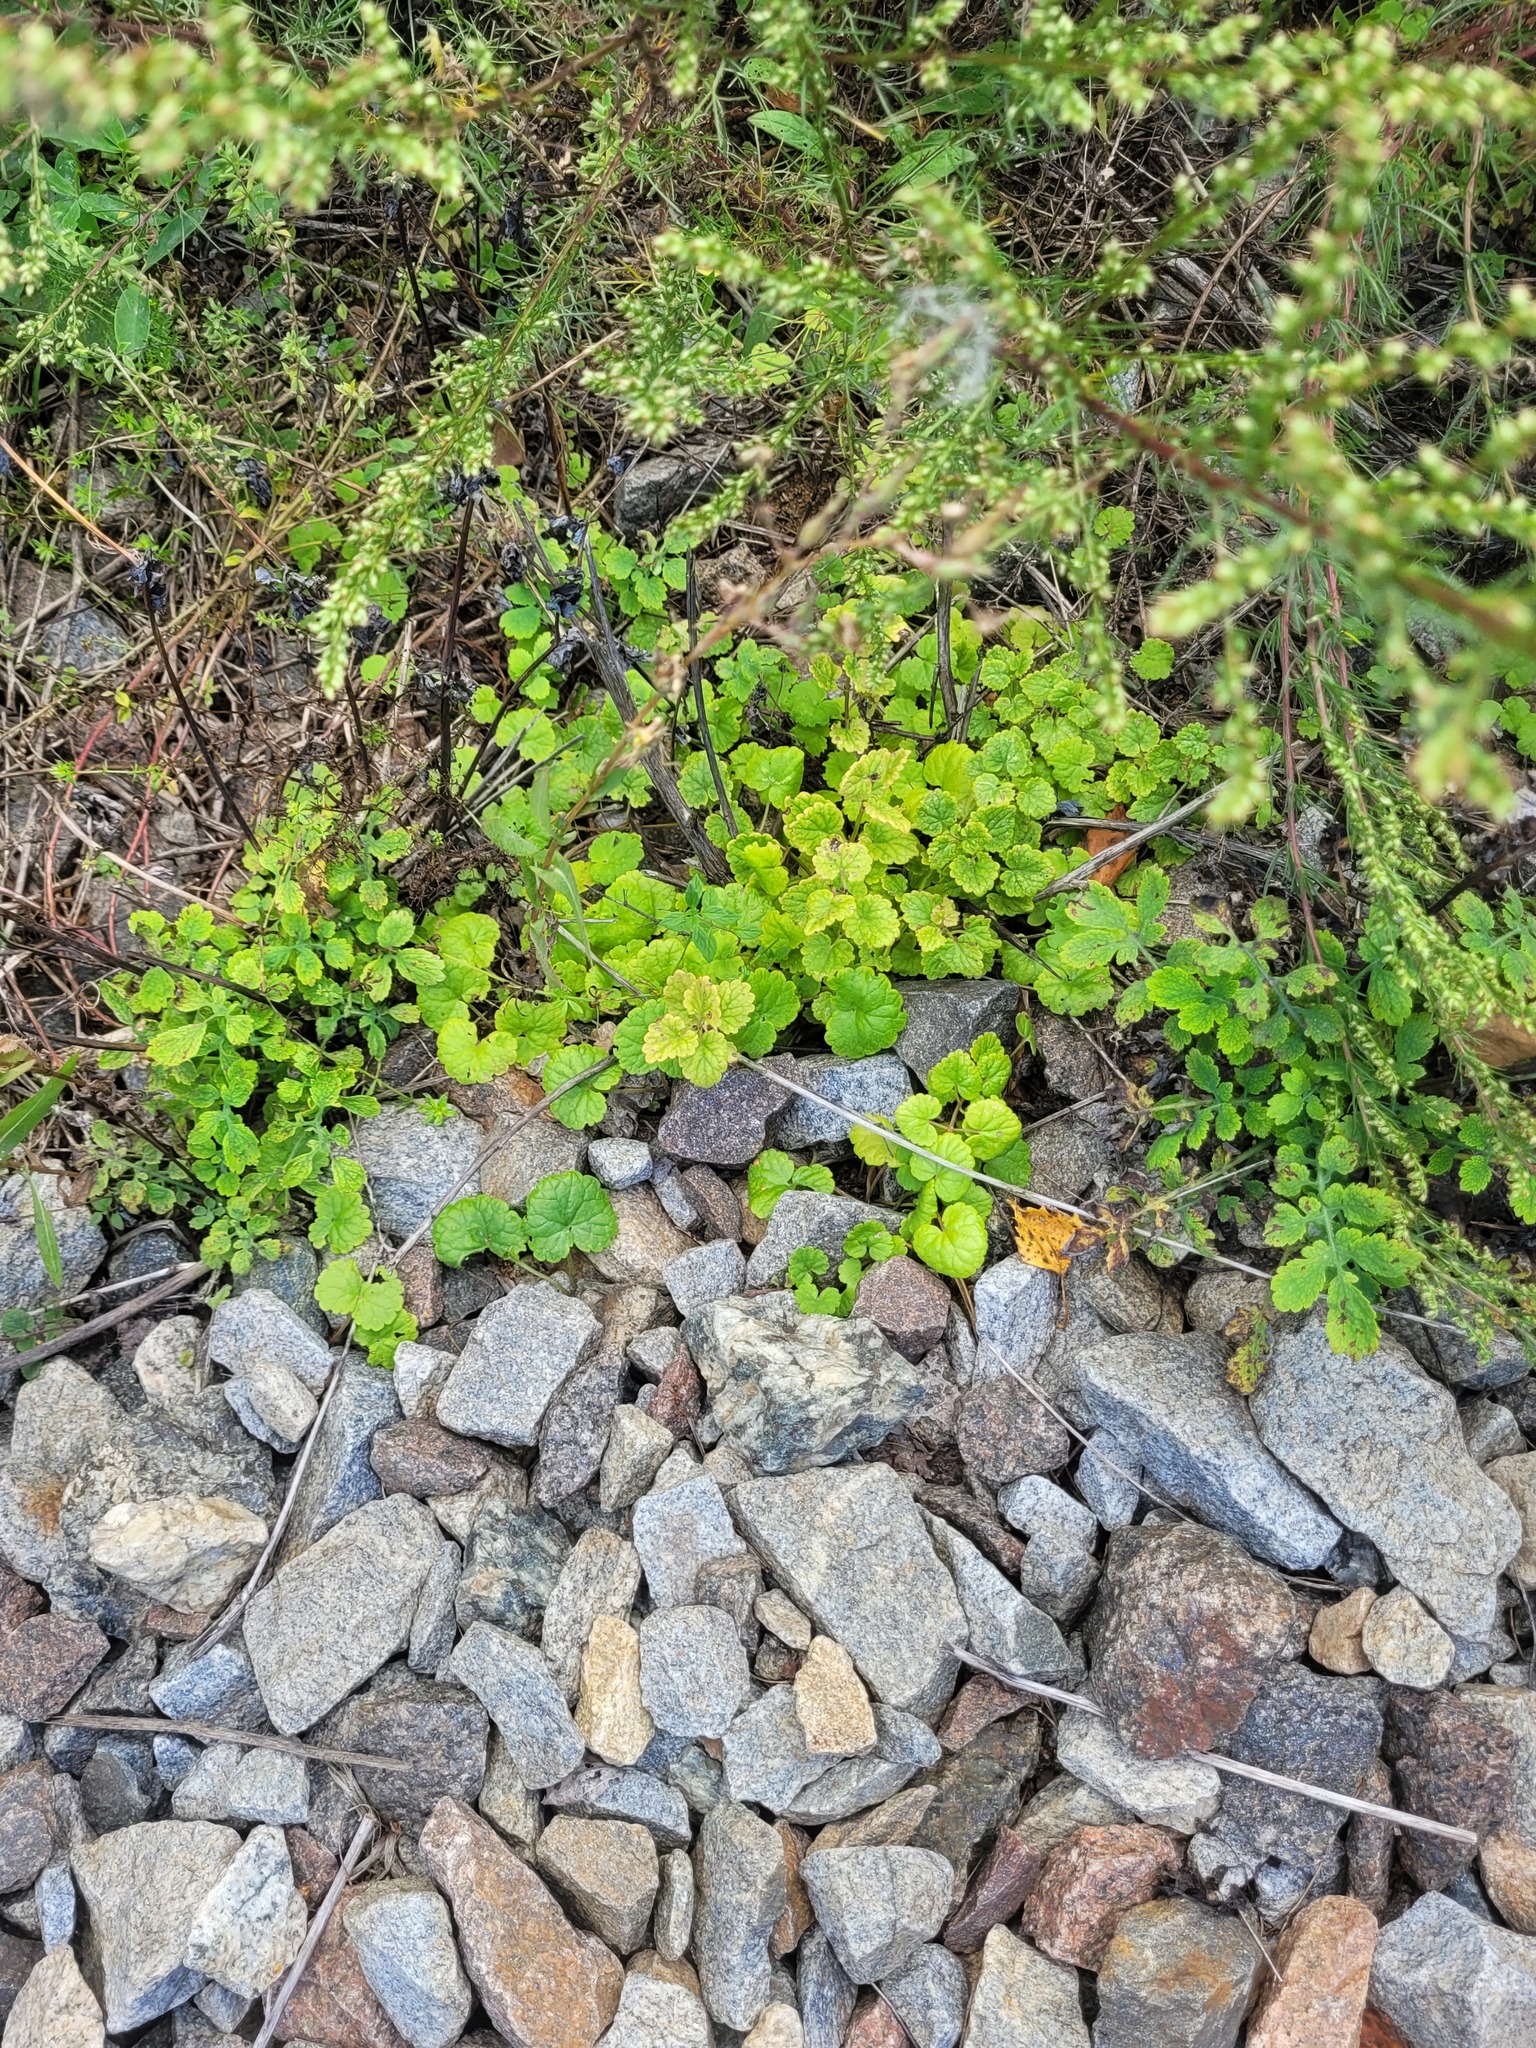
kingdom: Plantae
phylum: Tracheophyta
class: Magnoliopsida
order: Lamiales
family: Lamiaceae
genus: Glechoma
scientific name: Glechoma hederacea
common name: Ground ivy
